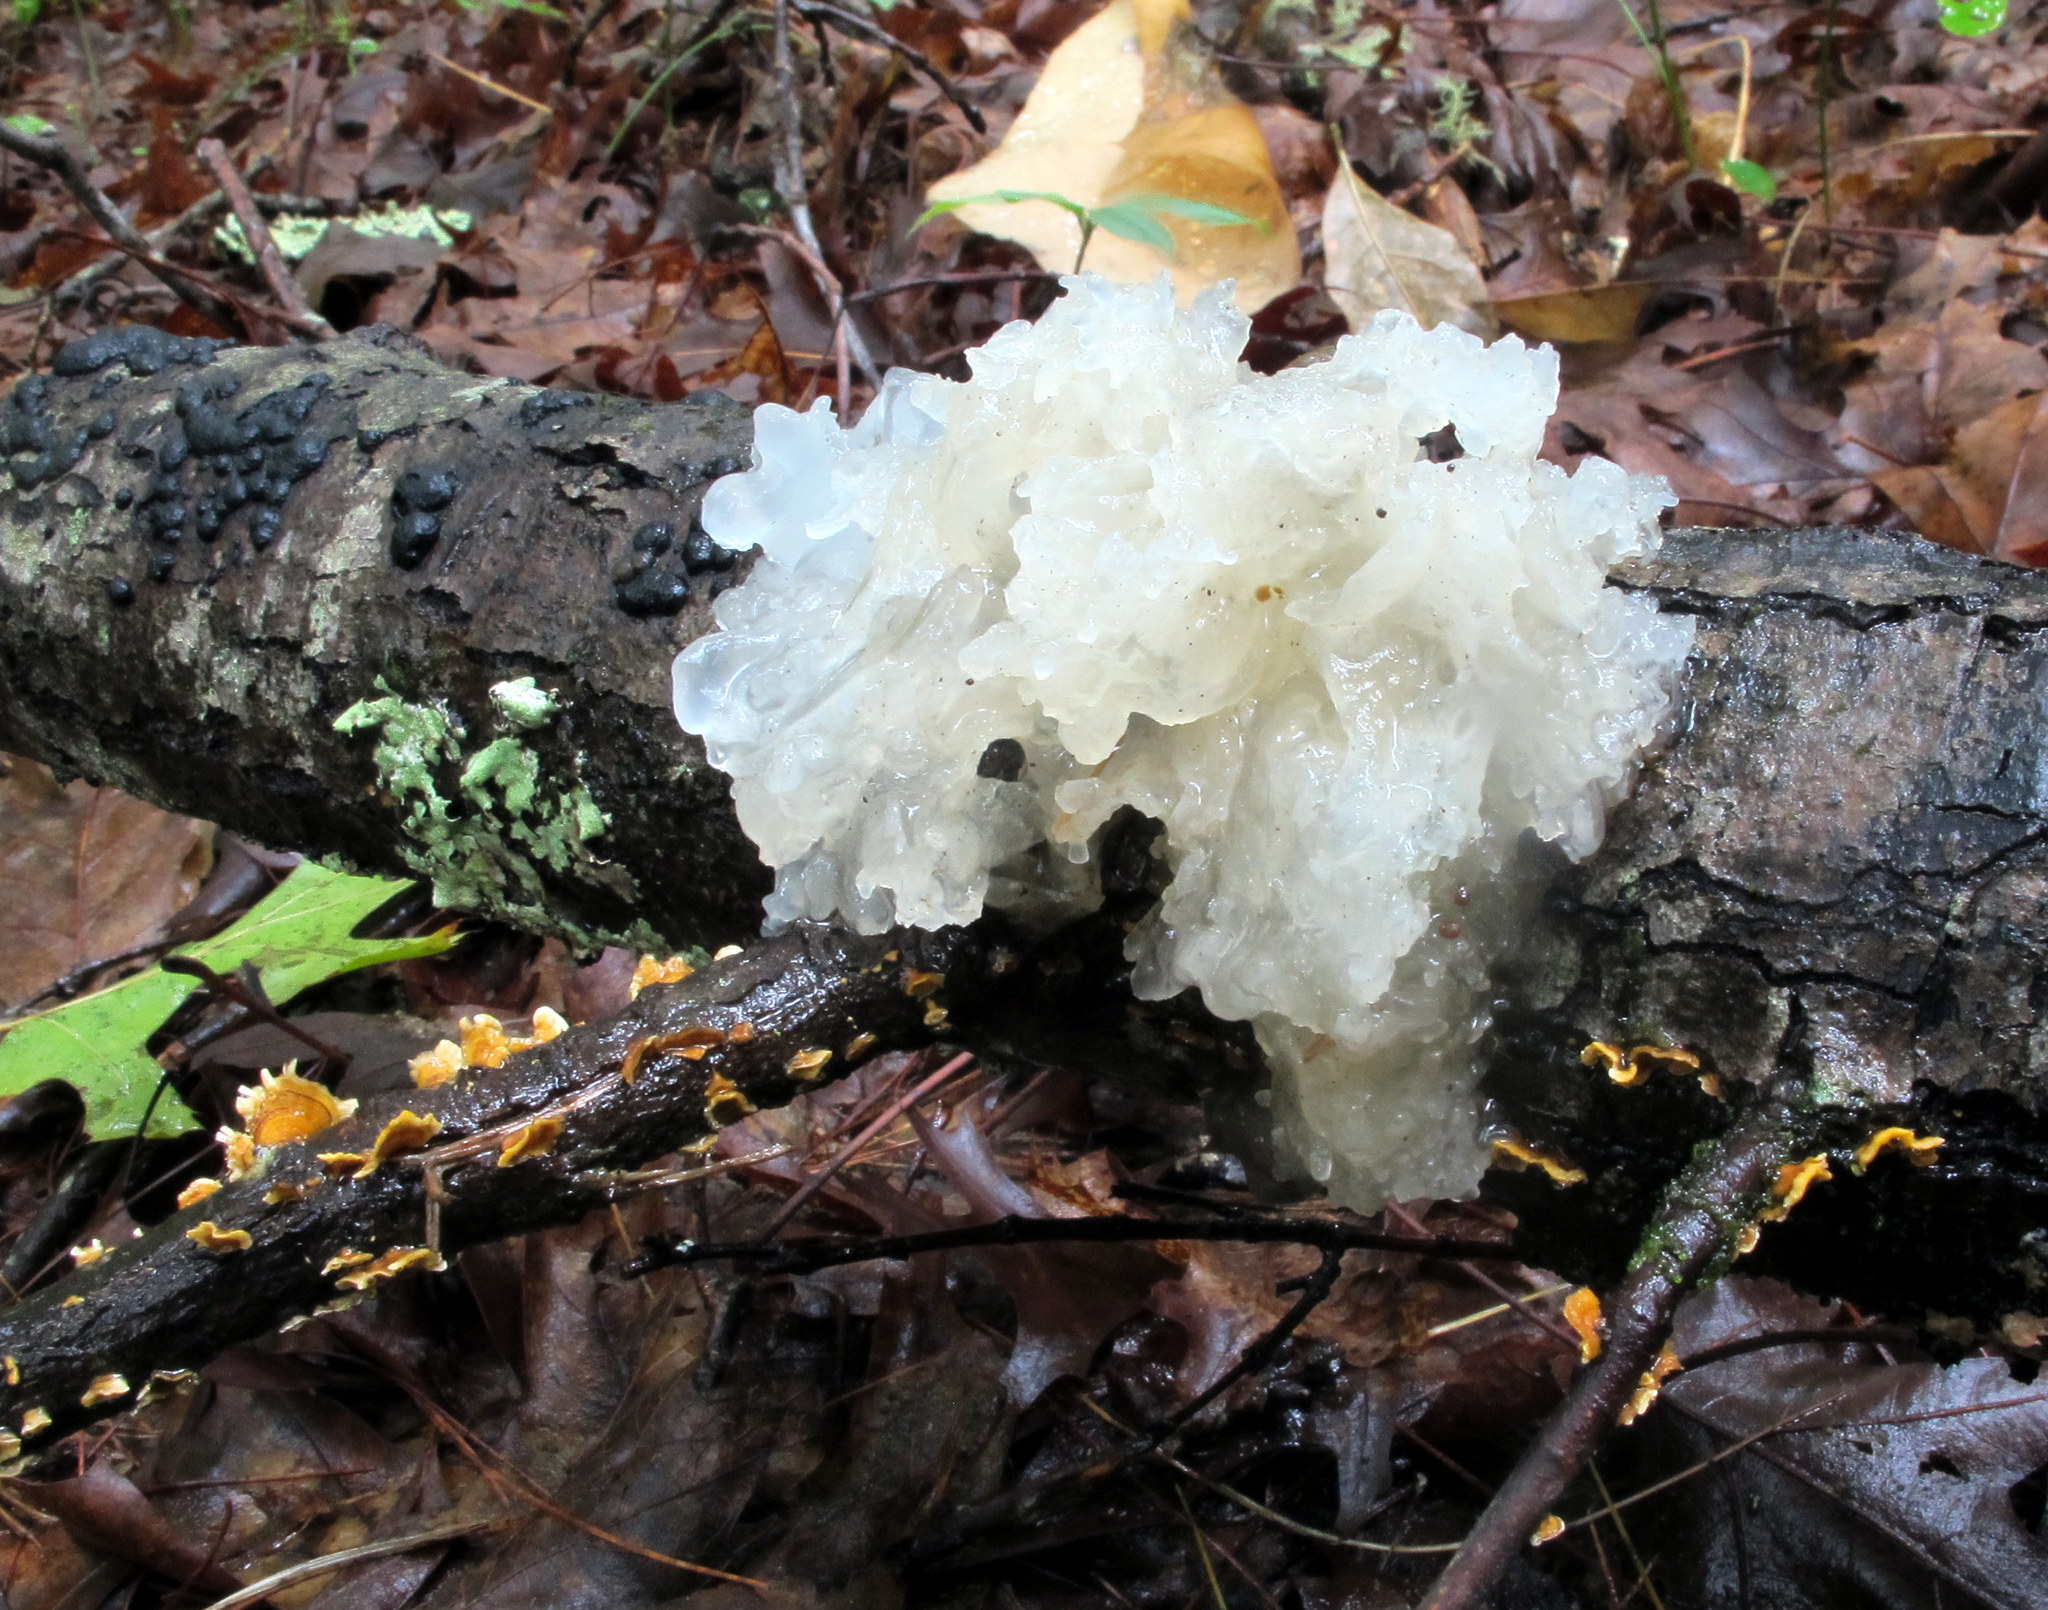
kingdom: Fungi
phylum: Basidiomycota
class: Tremellomycetes
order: Tremellales
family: Tremellaceae
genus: Tremella
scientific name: Tremella fuciformis
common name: Snow fungus
